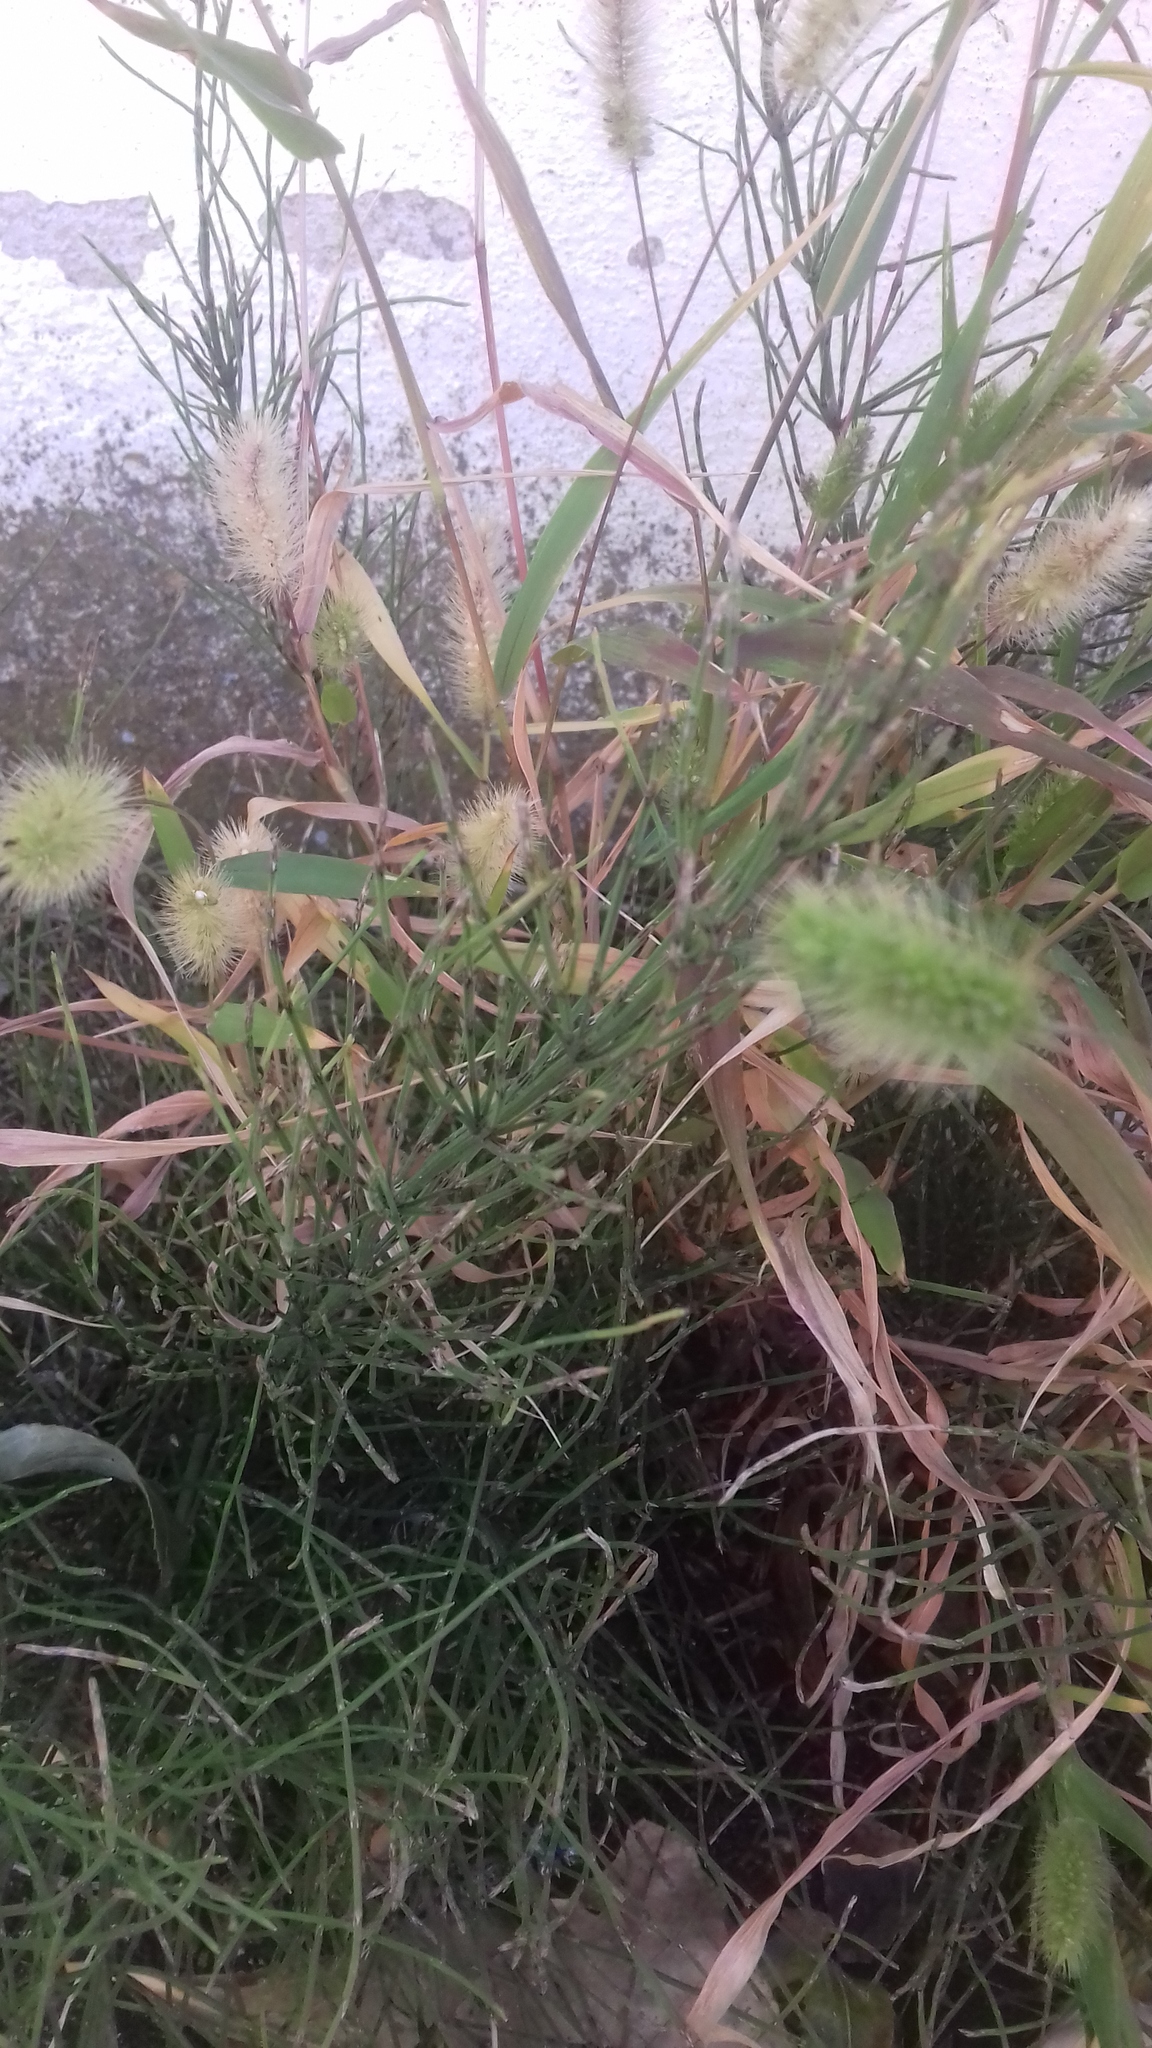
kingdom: Plantae
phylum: Tracheophyta
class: Liliopsida
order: Poales
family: Poaceae
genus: Setaria
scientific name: Setaria viridis
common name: Green bristlegrass
